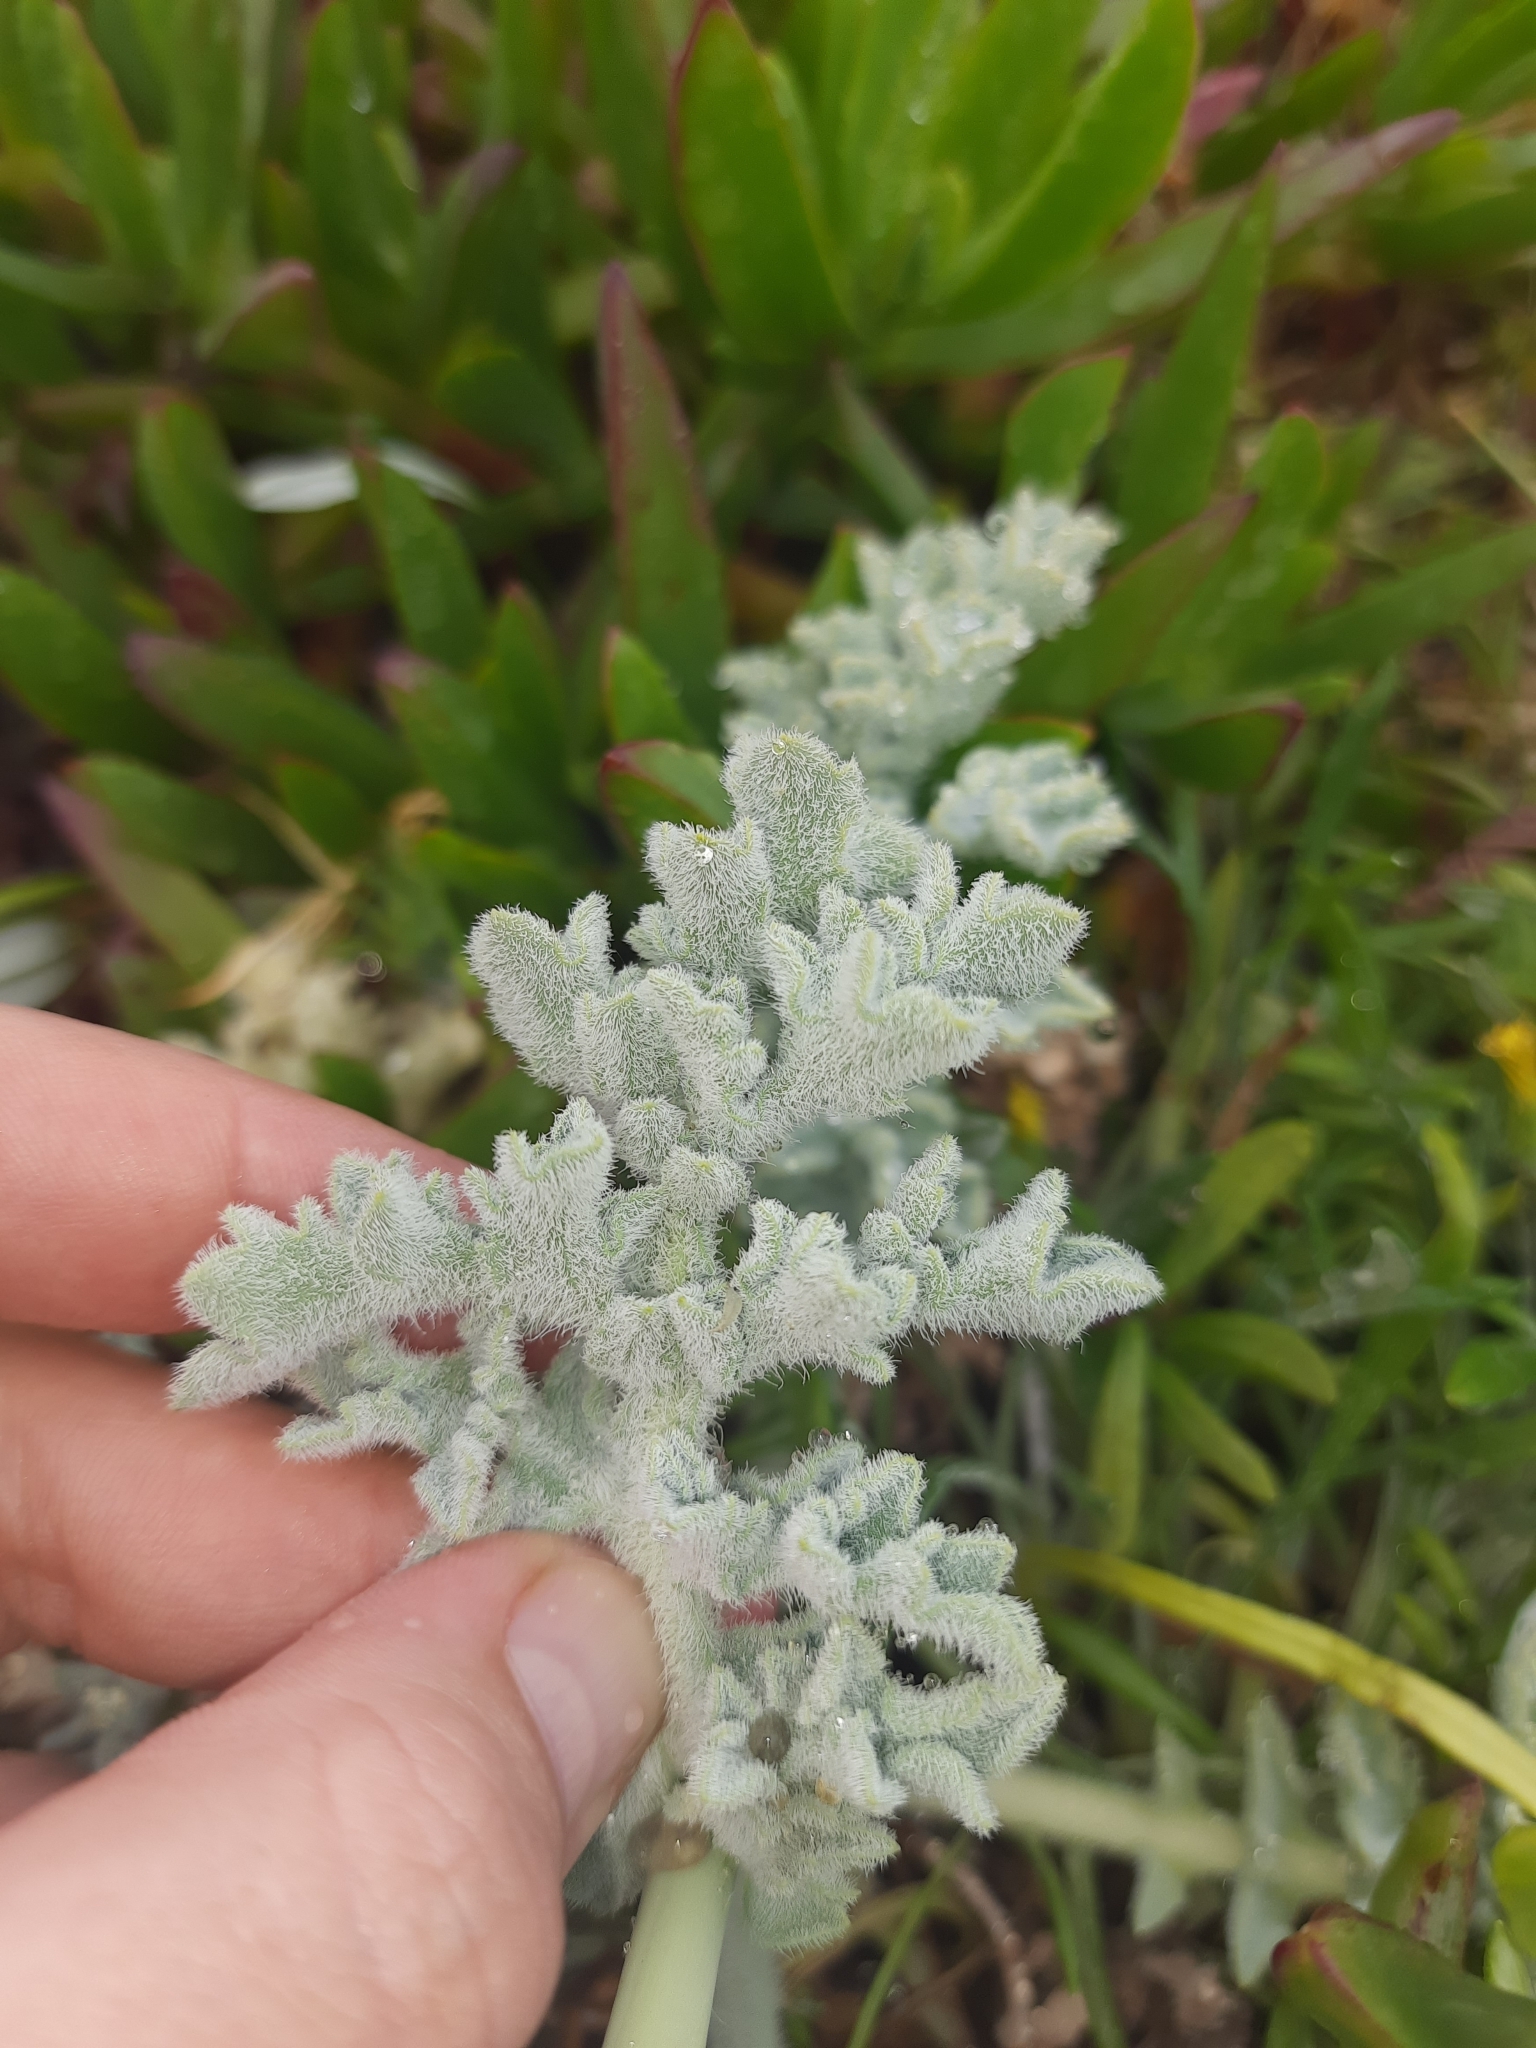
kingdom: Plantae
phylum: Tracheophyta
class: Magnoliopsida
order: Ranunculales
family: Papaveraceae
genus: Glaucium
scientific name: Glaucium flavum
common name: Yellow horned-poppy
